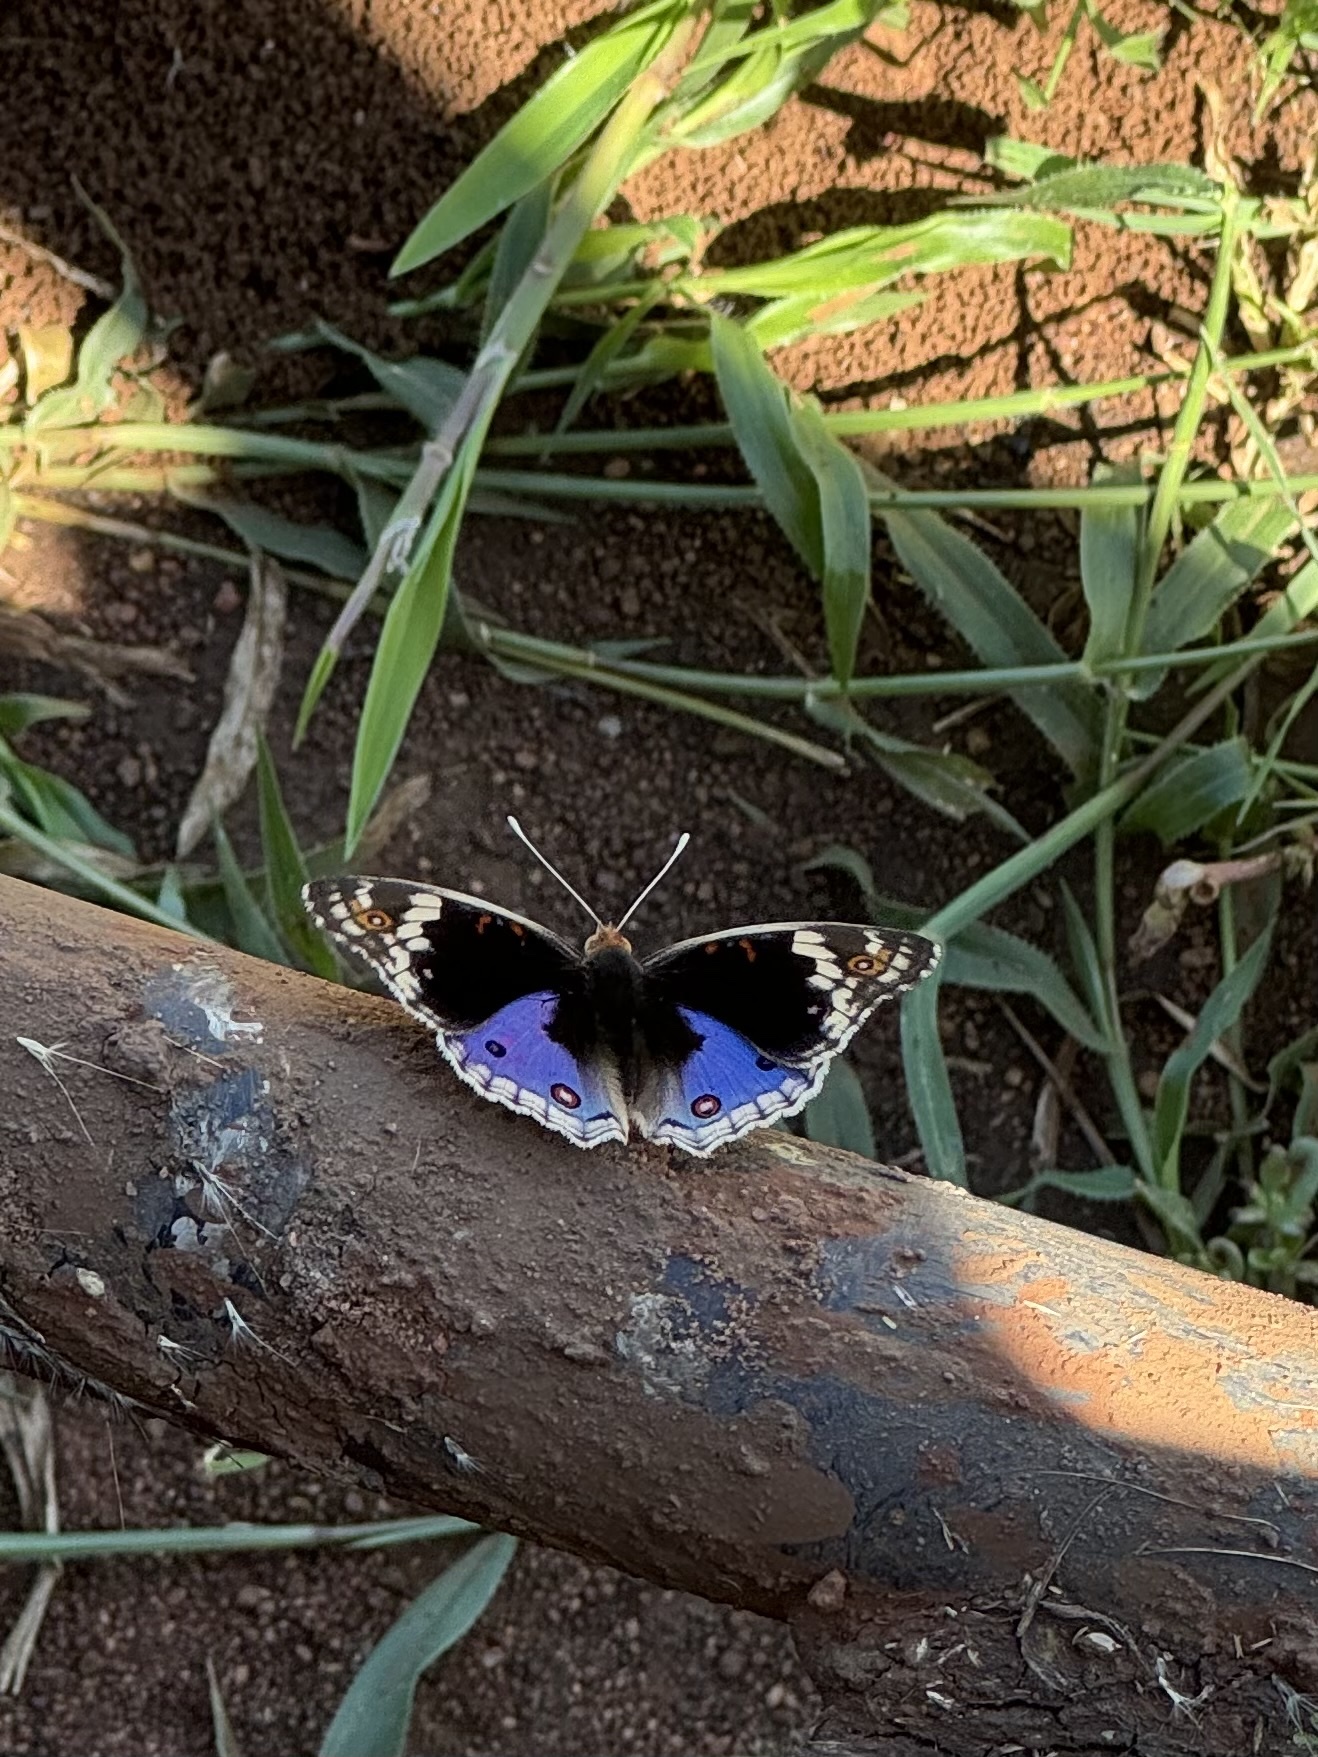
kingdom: Animalia
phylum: Arthropoda
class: Insecta
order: Lepidoptera
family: Nymphalidae
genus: Junonia
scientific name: Junonia orithya
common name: Blue pansy
